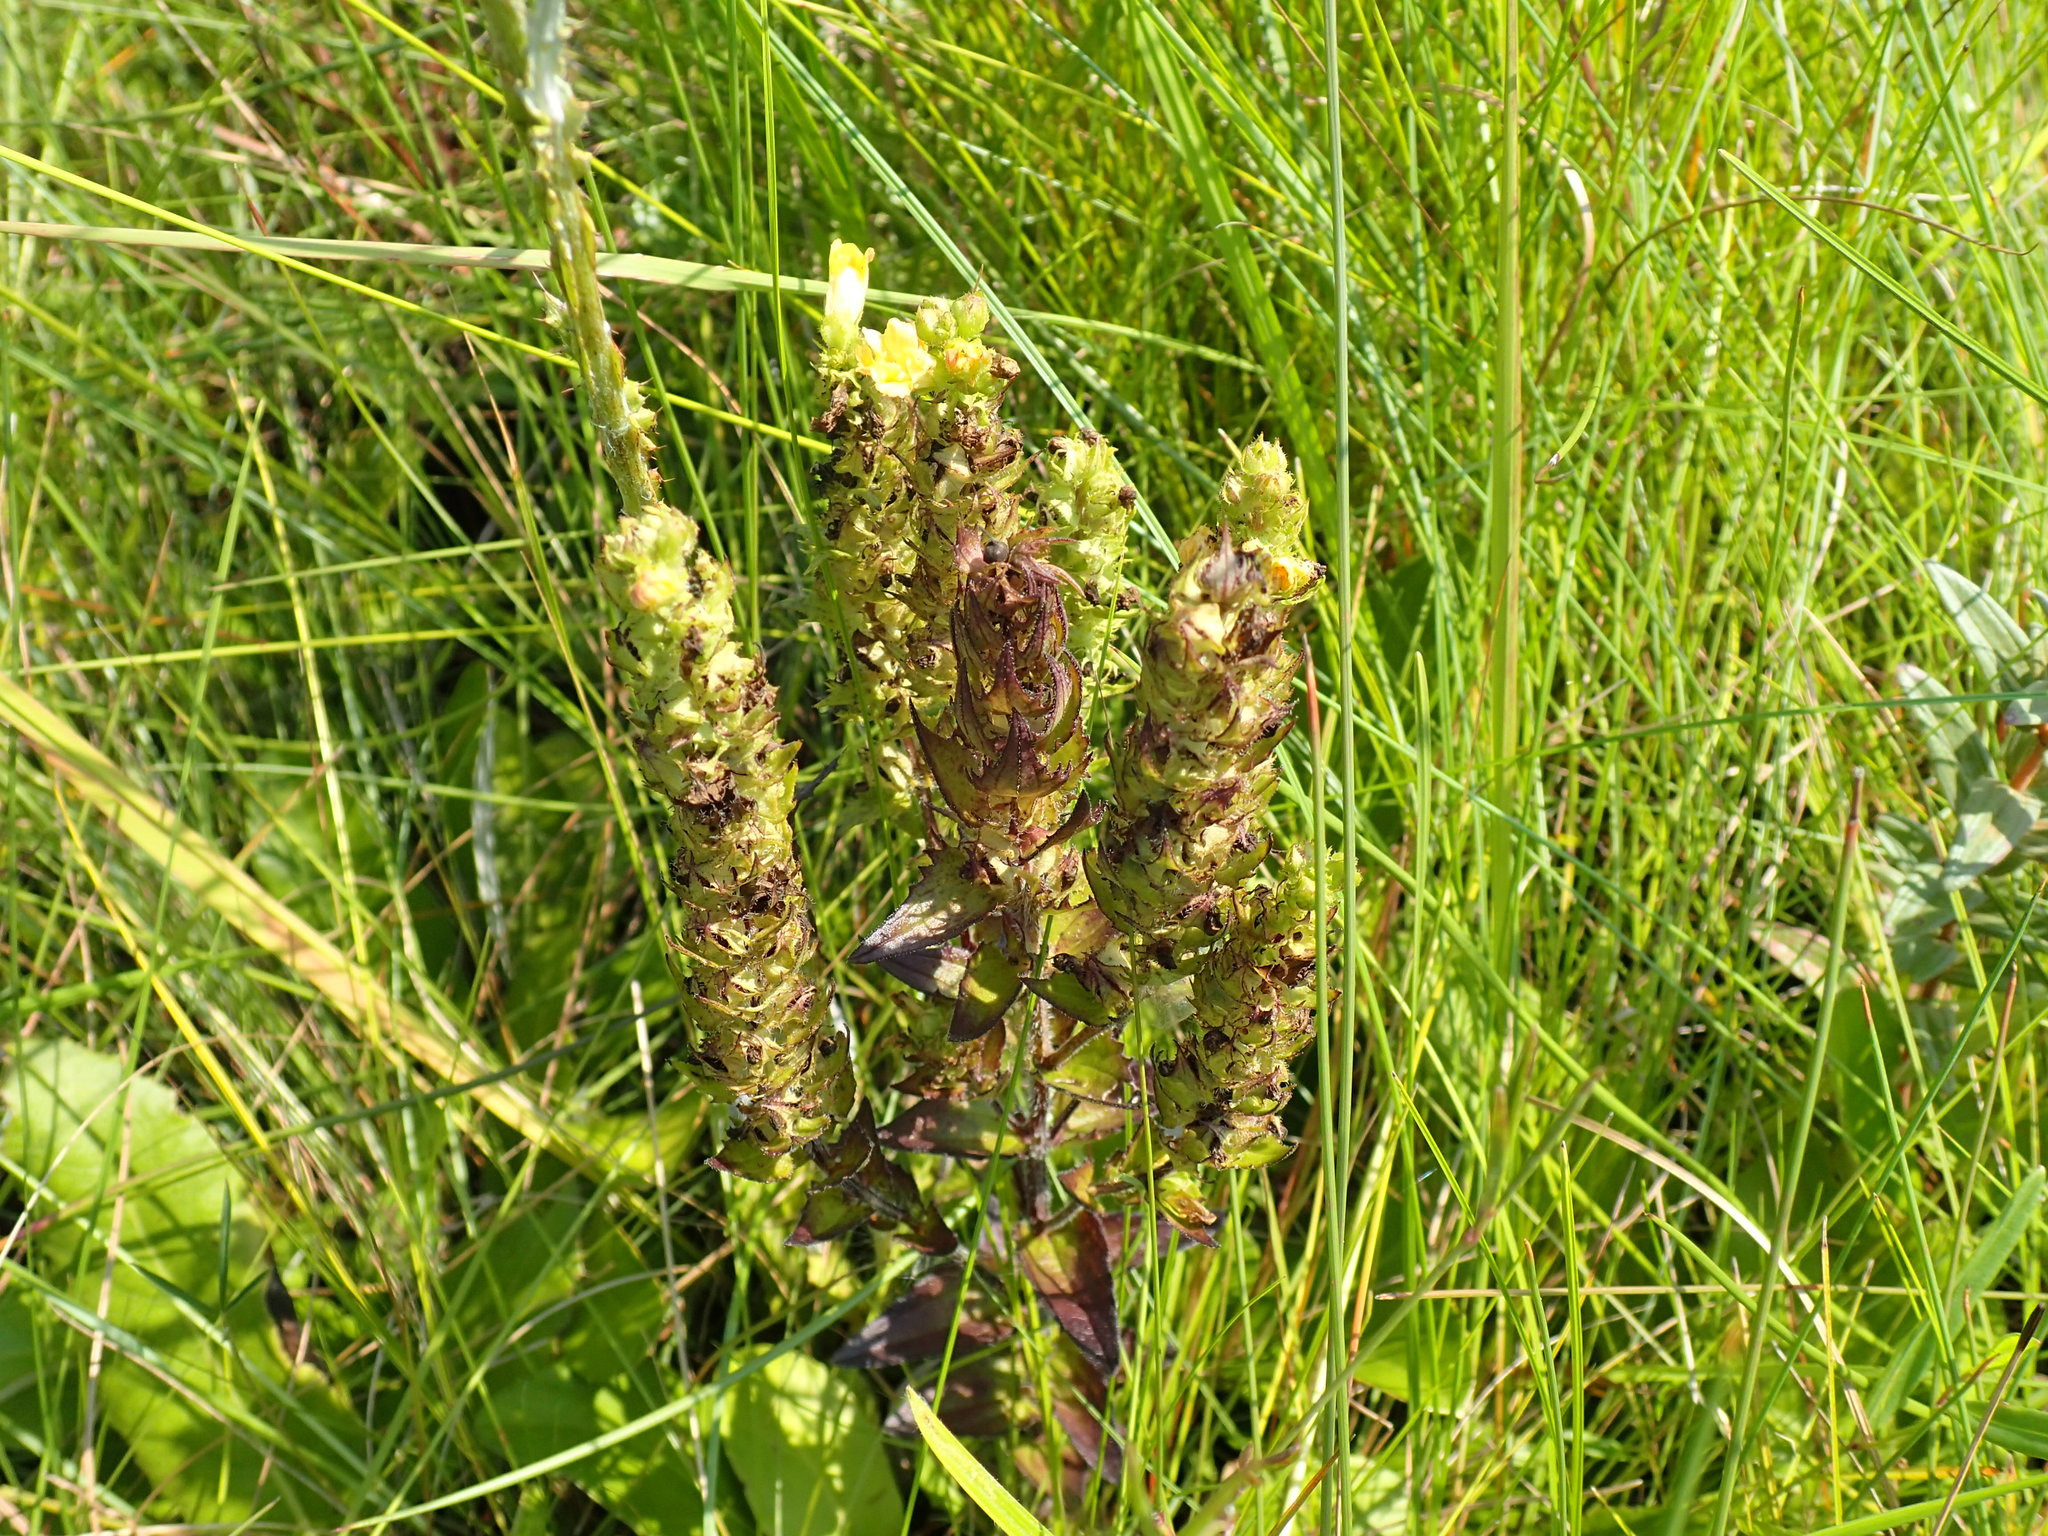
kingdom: Plantae
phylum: Tracheophyta
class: Magnoliopsida
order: Lamiales
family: Orobanchaceae
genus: Alectra
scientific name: Alectra sessiliflora
